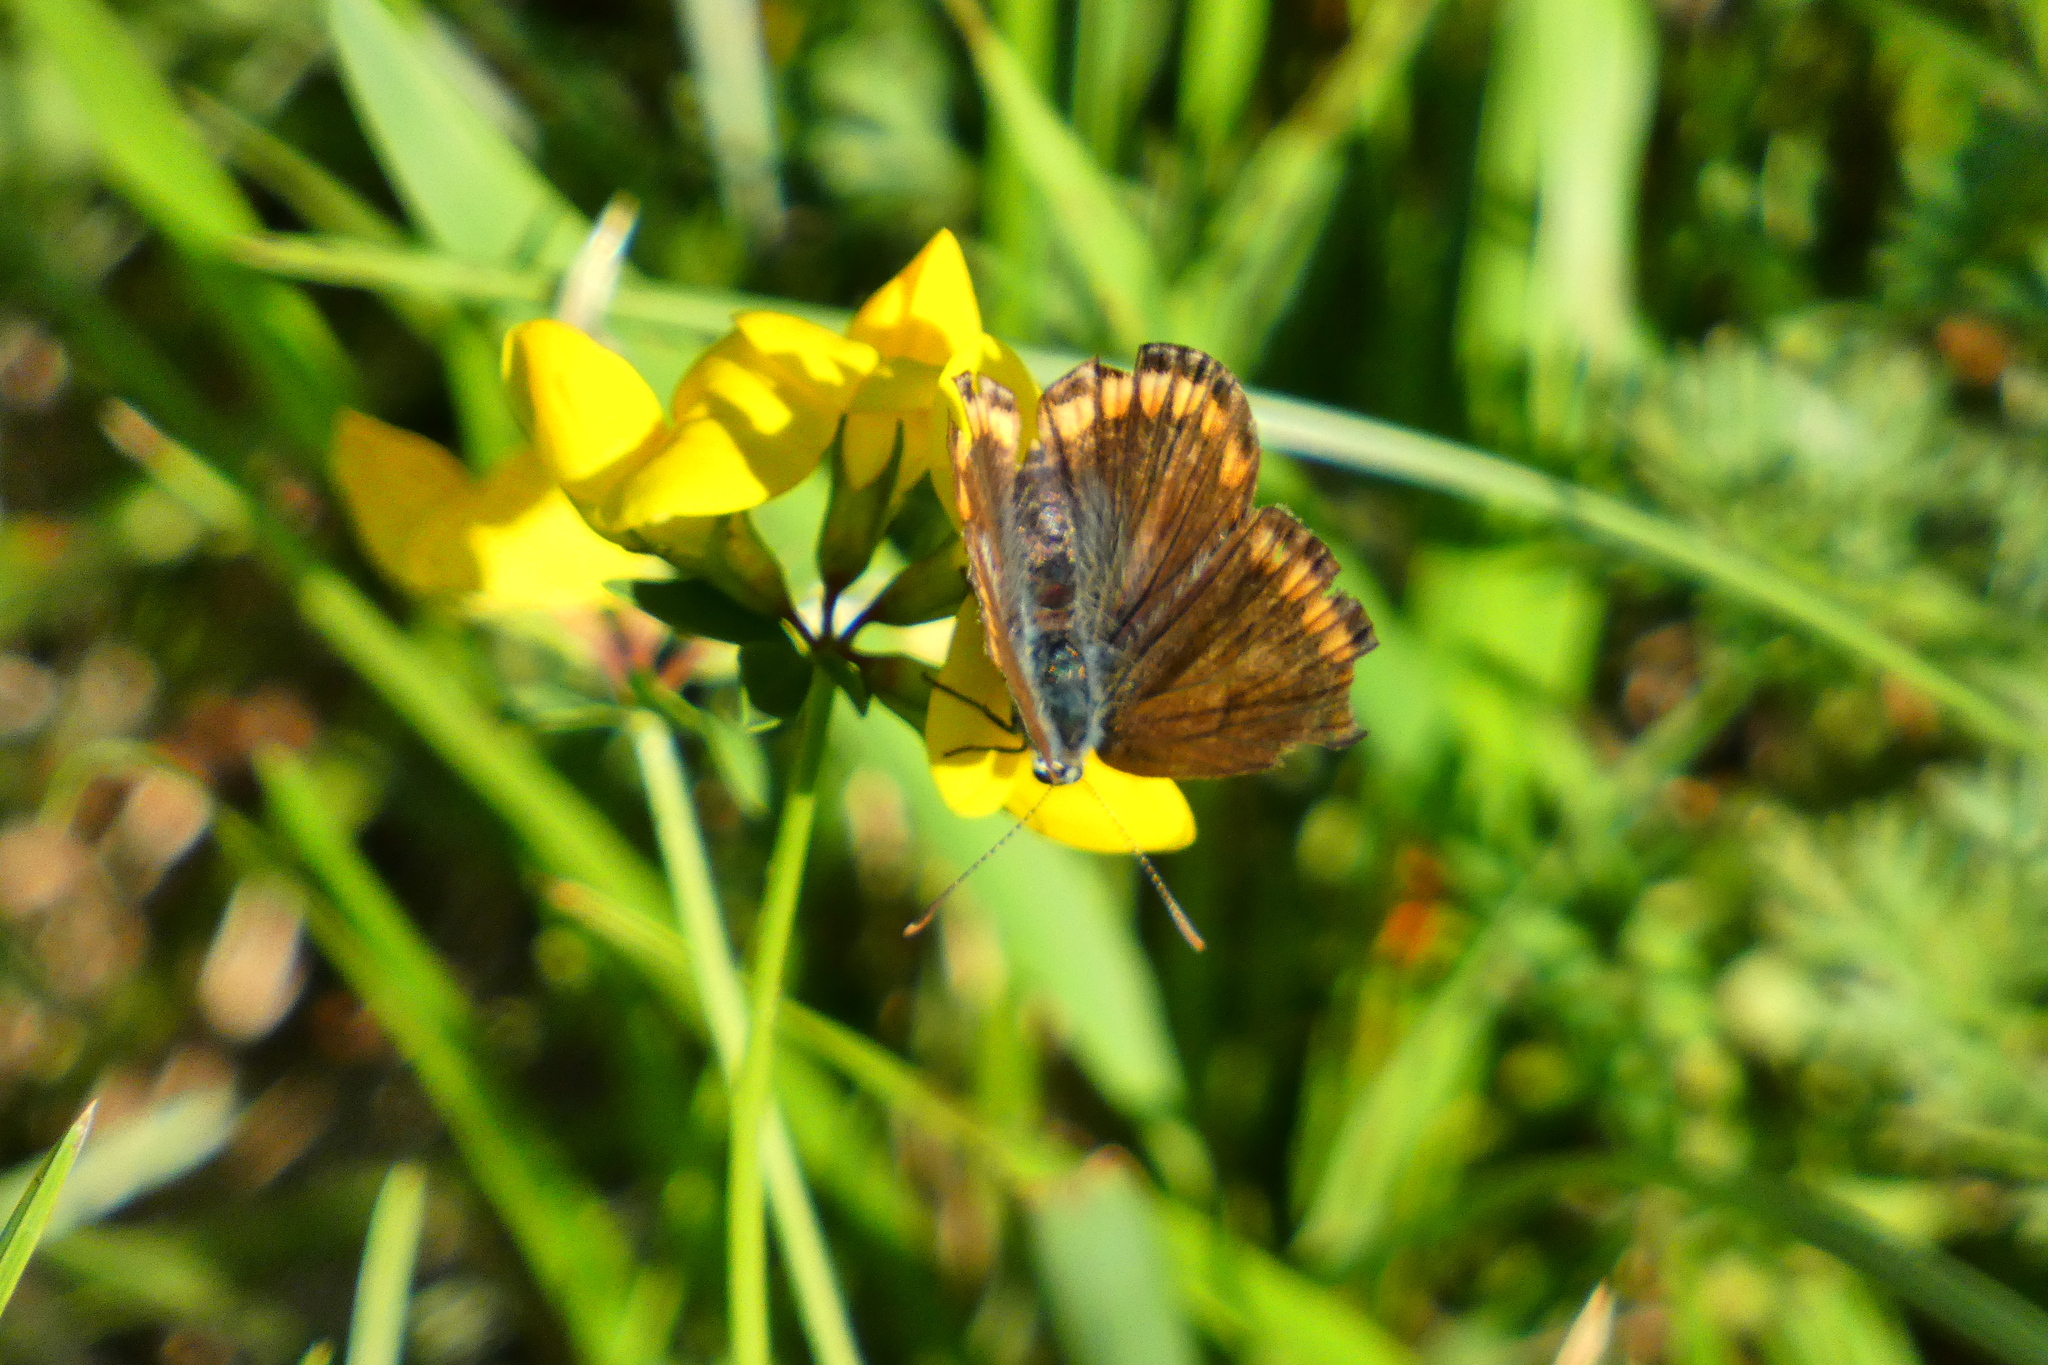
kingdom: Animalia
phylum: Arthropoda
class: Insecta
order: Lepidoptera
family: Lycaenidae
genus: Polyommatus
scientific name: Polyommatus icarus
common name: Common blue
